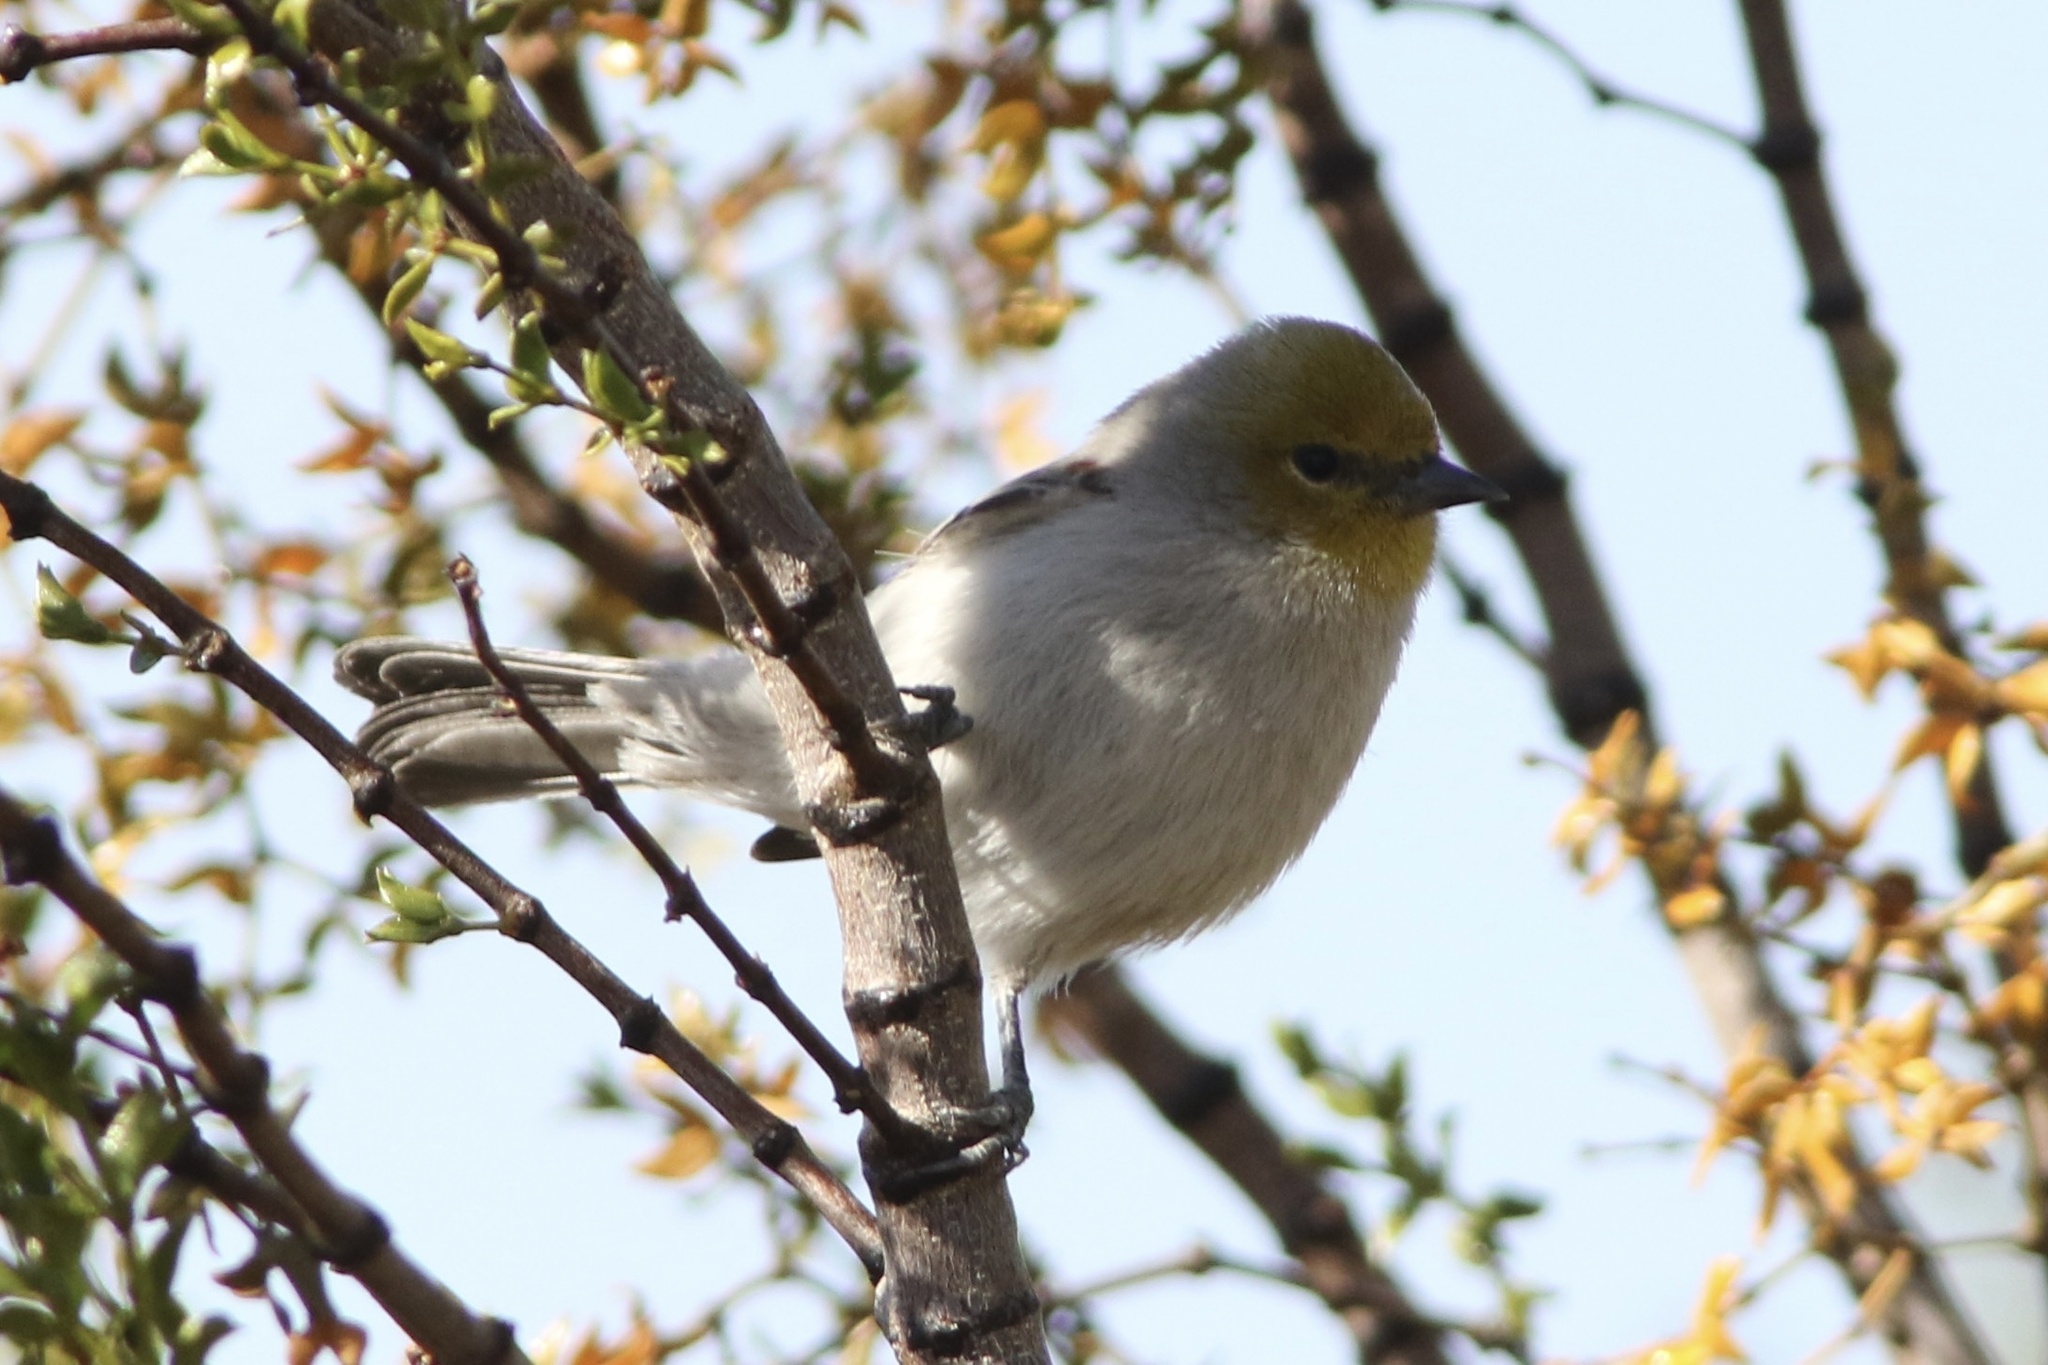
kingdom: Animalia
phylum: Chordata
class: Aves
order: Passeriformes
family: Remizidae
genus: Auriparus
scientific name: Auriparus flaviceps
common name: Verdin
